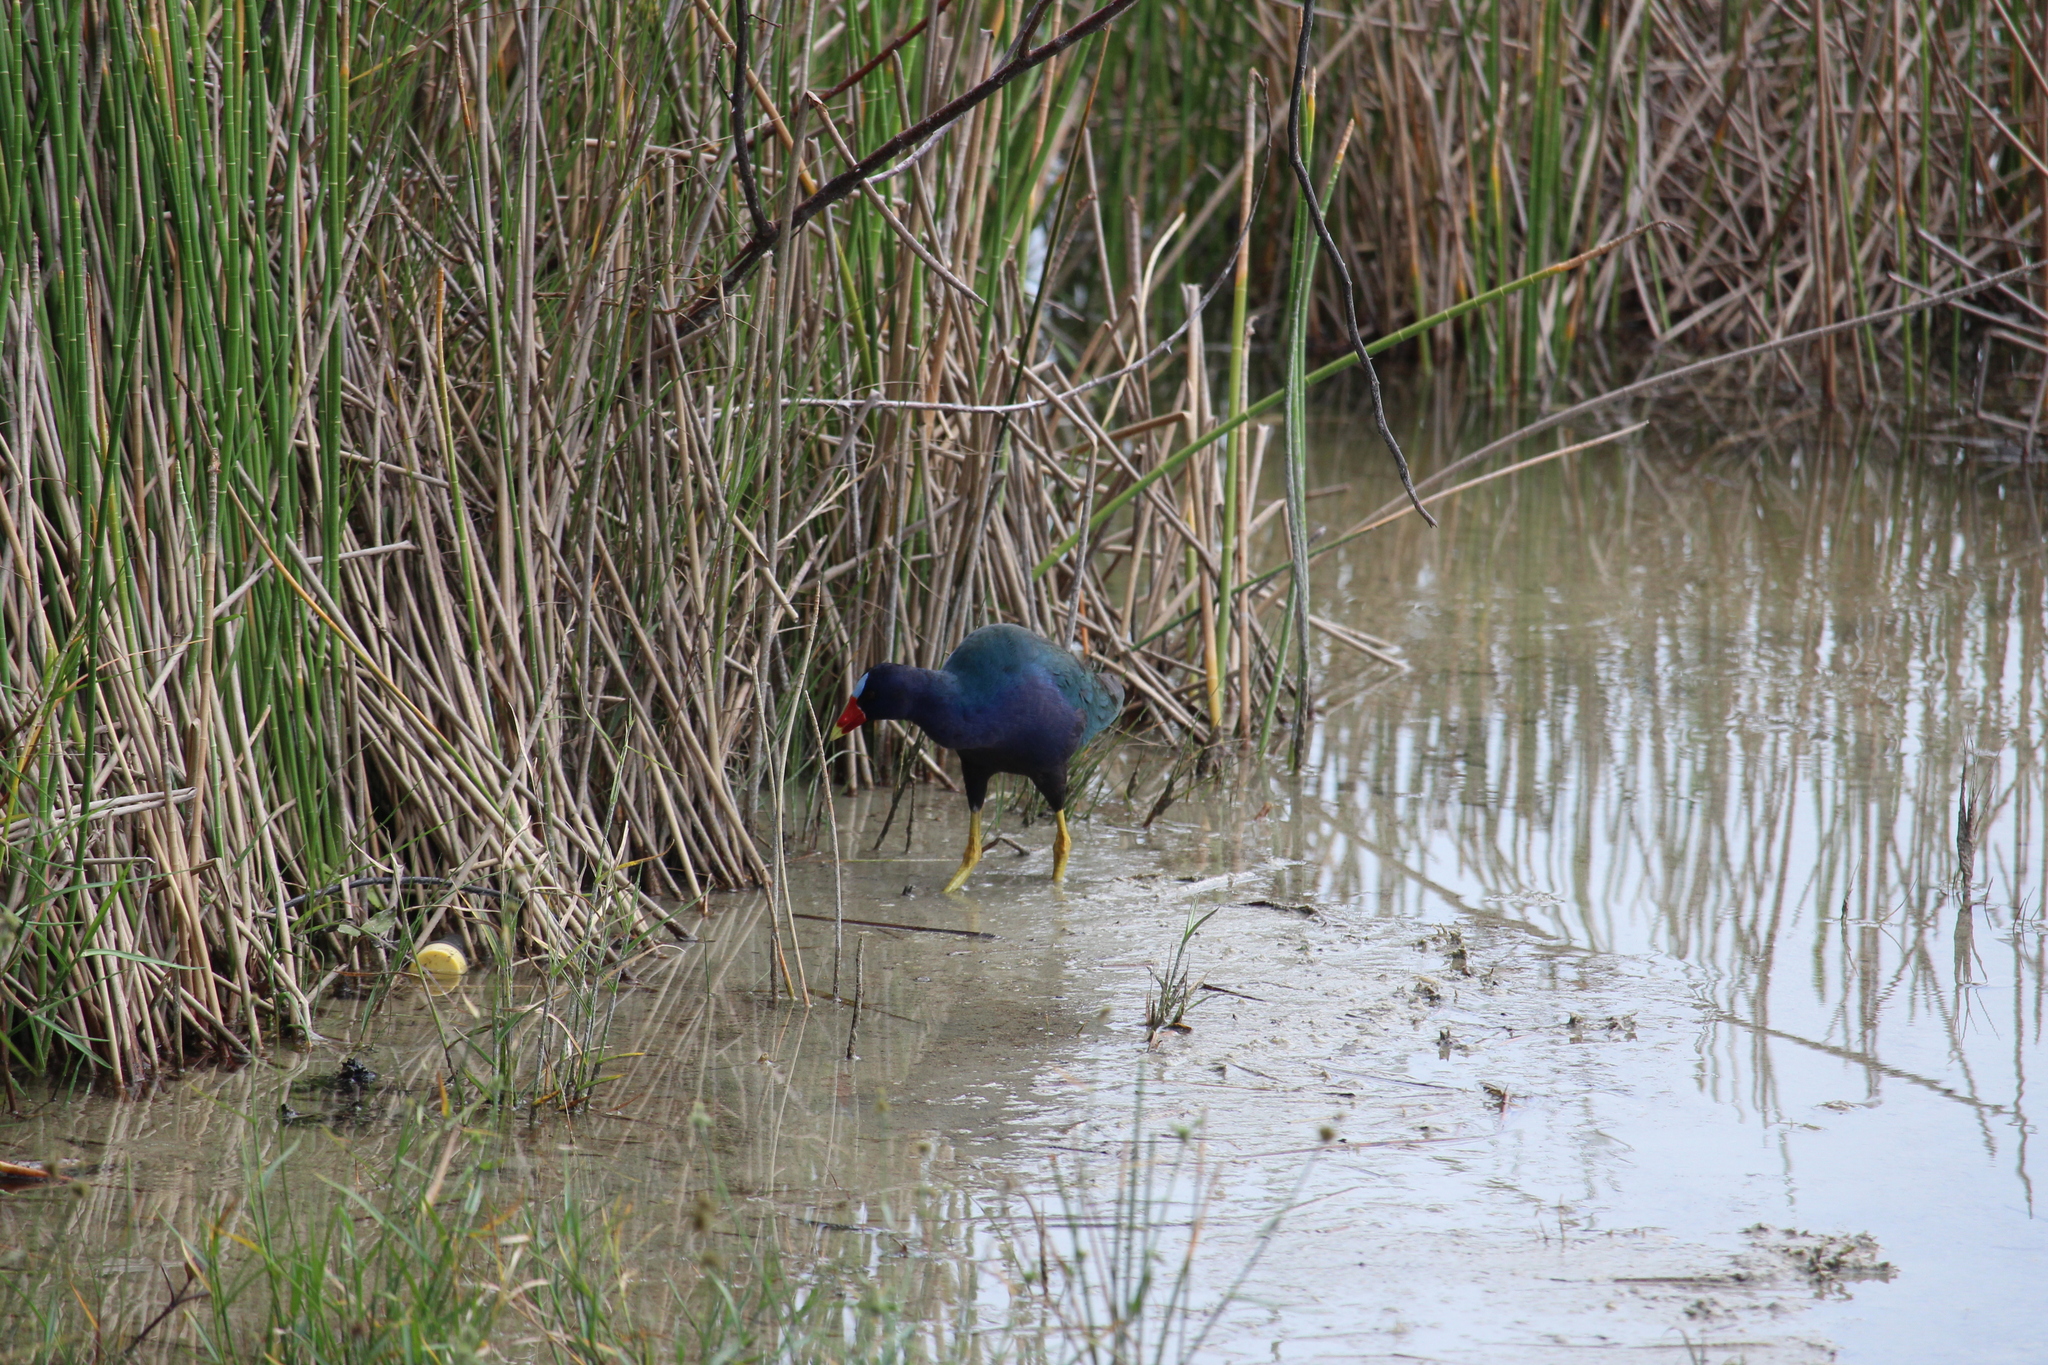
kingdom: Animalia
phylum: Chordata
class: Aves
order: Gruiformes
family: Rallidae
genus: Porphyrio
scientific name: Porphyrio martinica
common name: Purple gallinule
